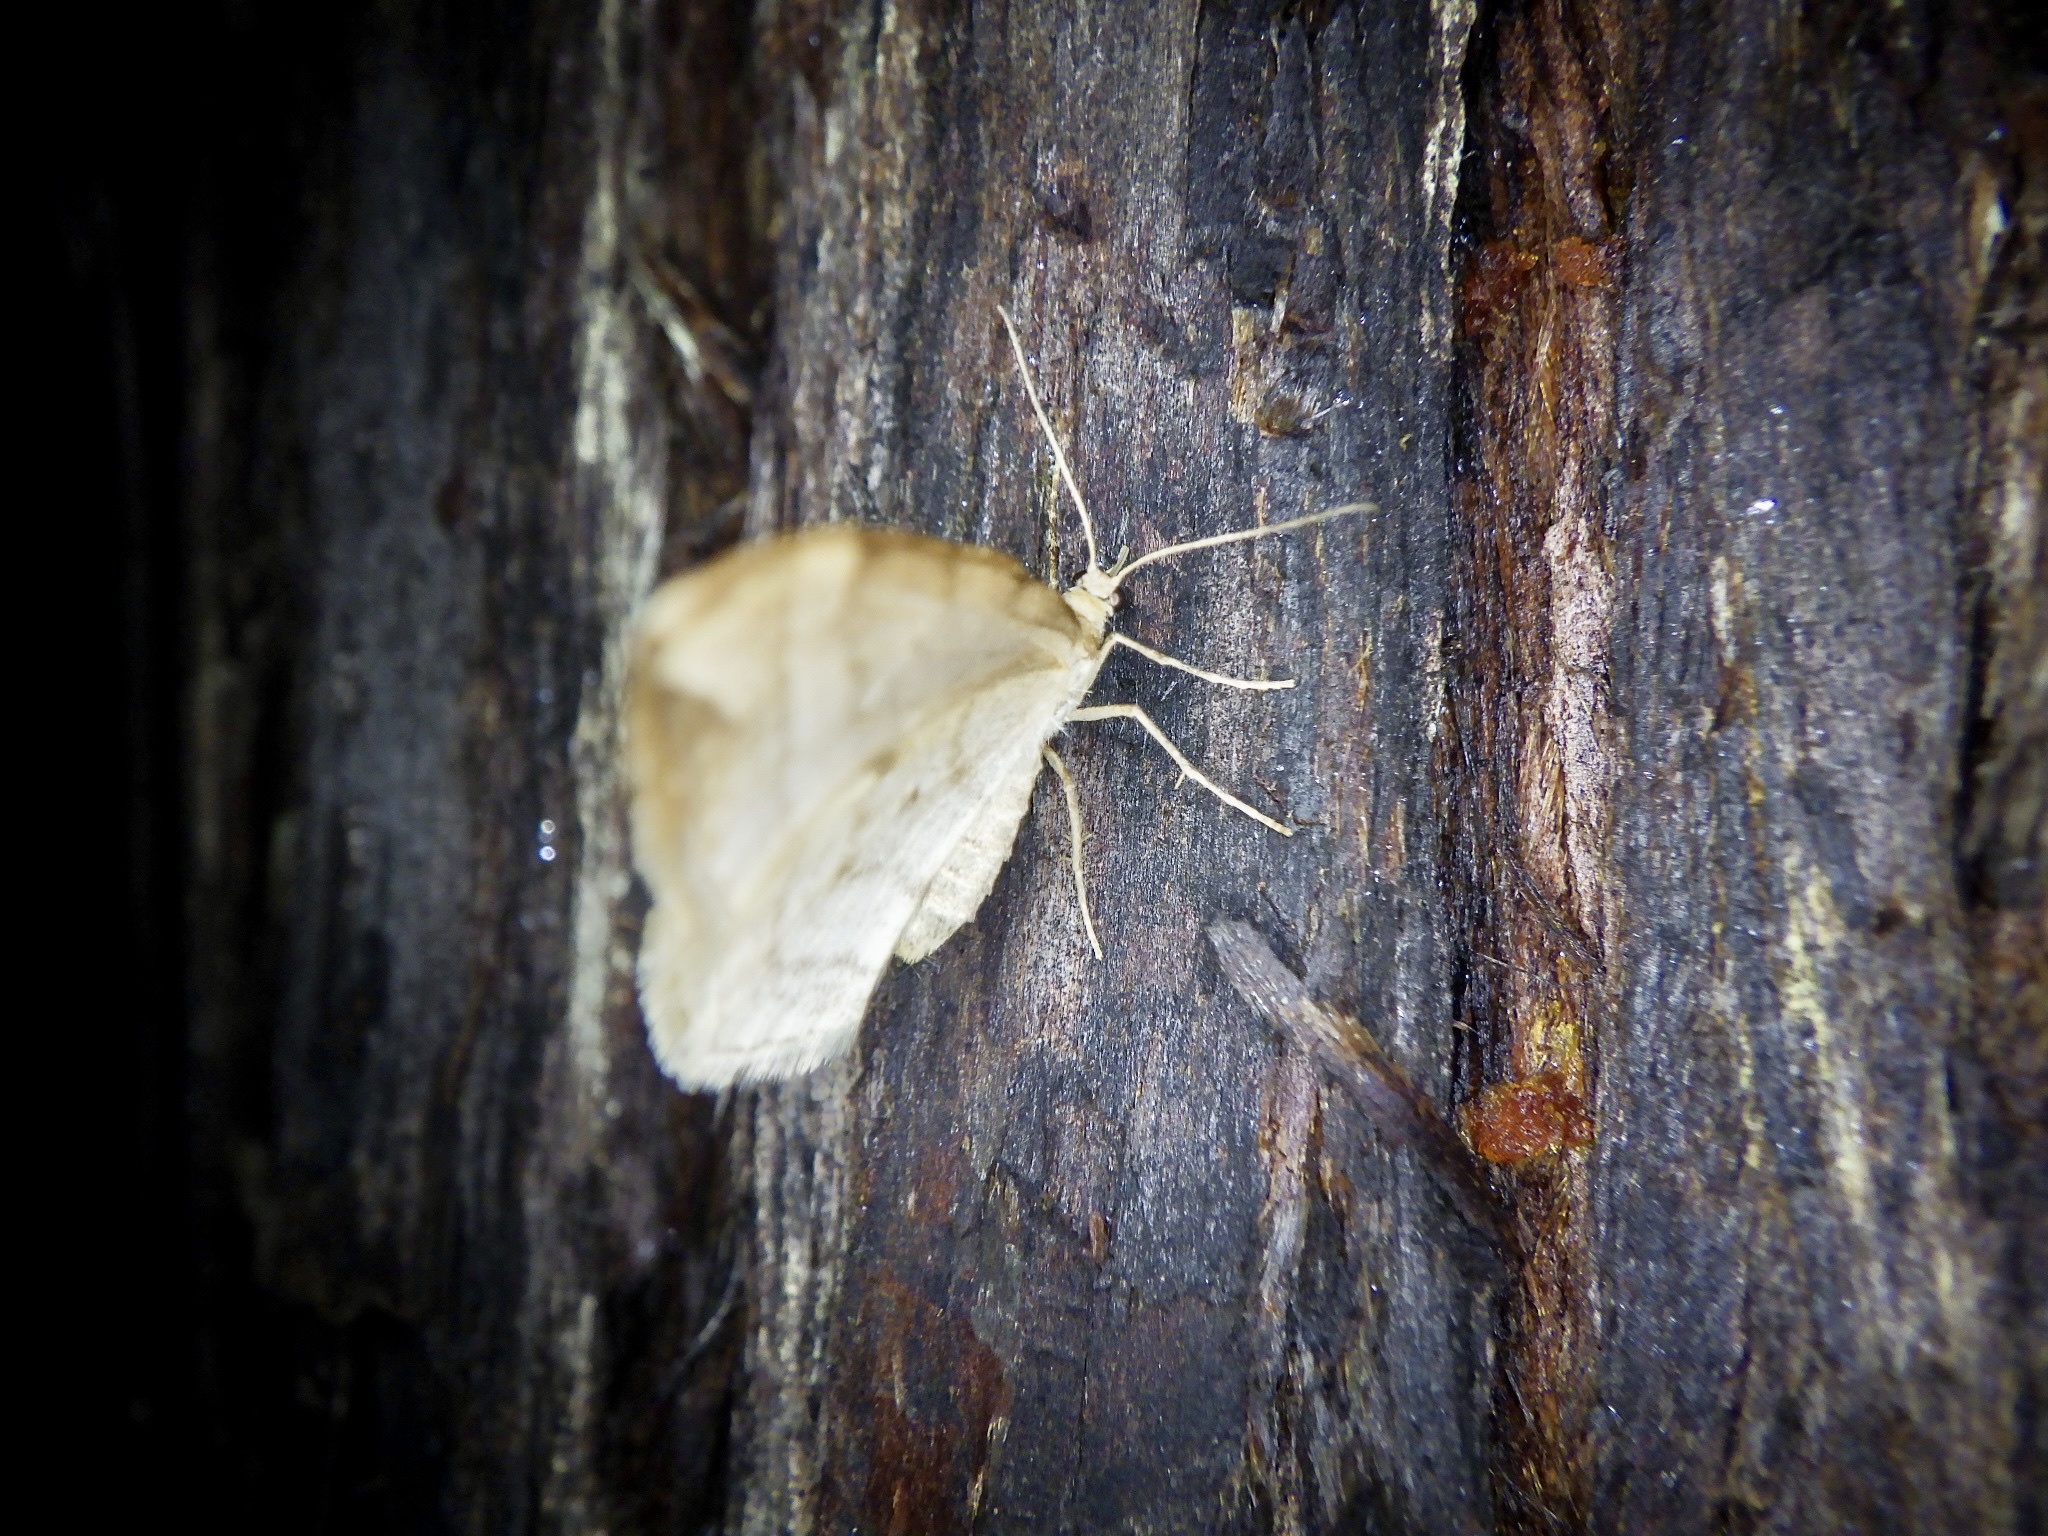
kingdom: Animalia
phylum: Arthropoda
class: Insecta
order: Lepidoptera
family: Geometridae
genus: Nothoporinia
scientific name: Nothoporinia mediolineata
